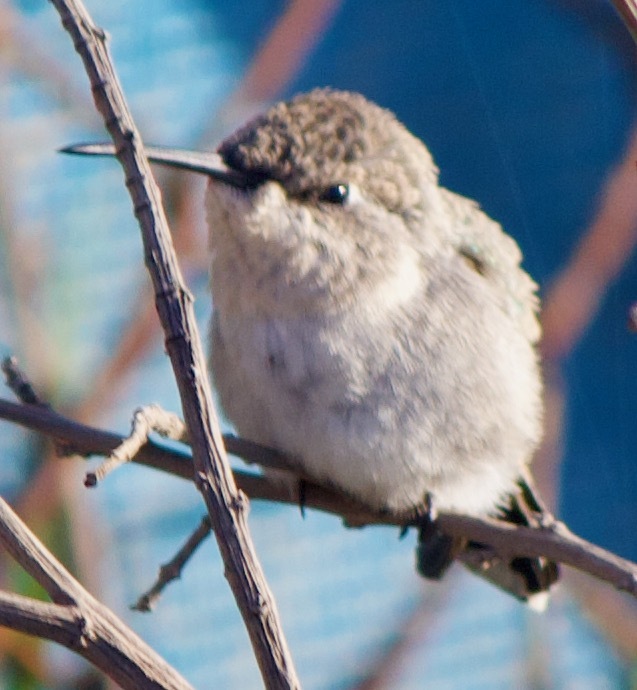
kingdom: Animalia
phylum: Chordata
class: Aves
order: Apodiformes
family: Trochilidae
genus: Rhodopis
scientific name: Rhodopis vesper
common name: Oasis hummingbird
